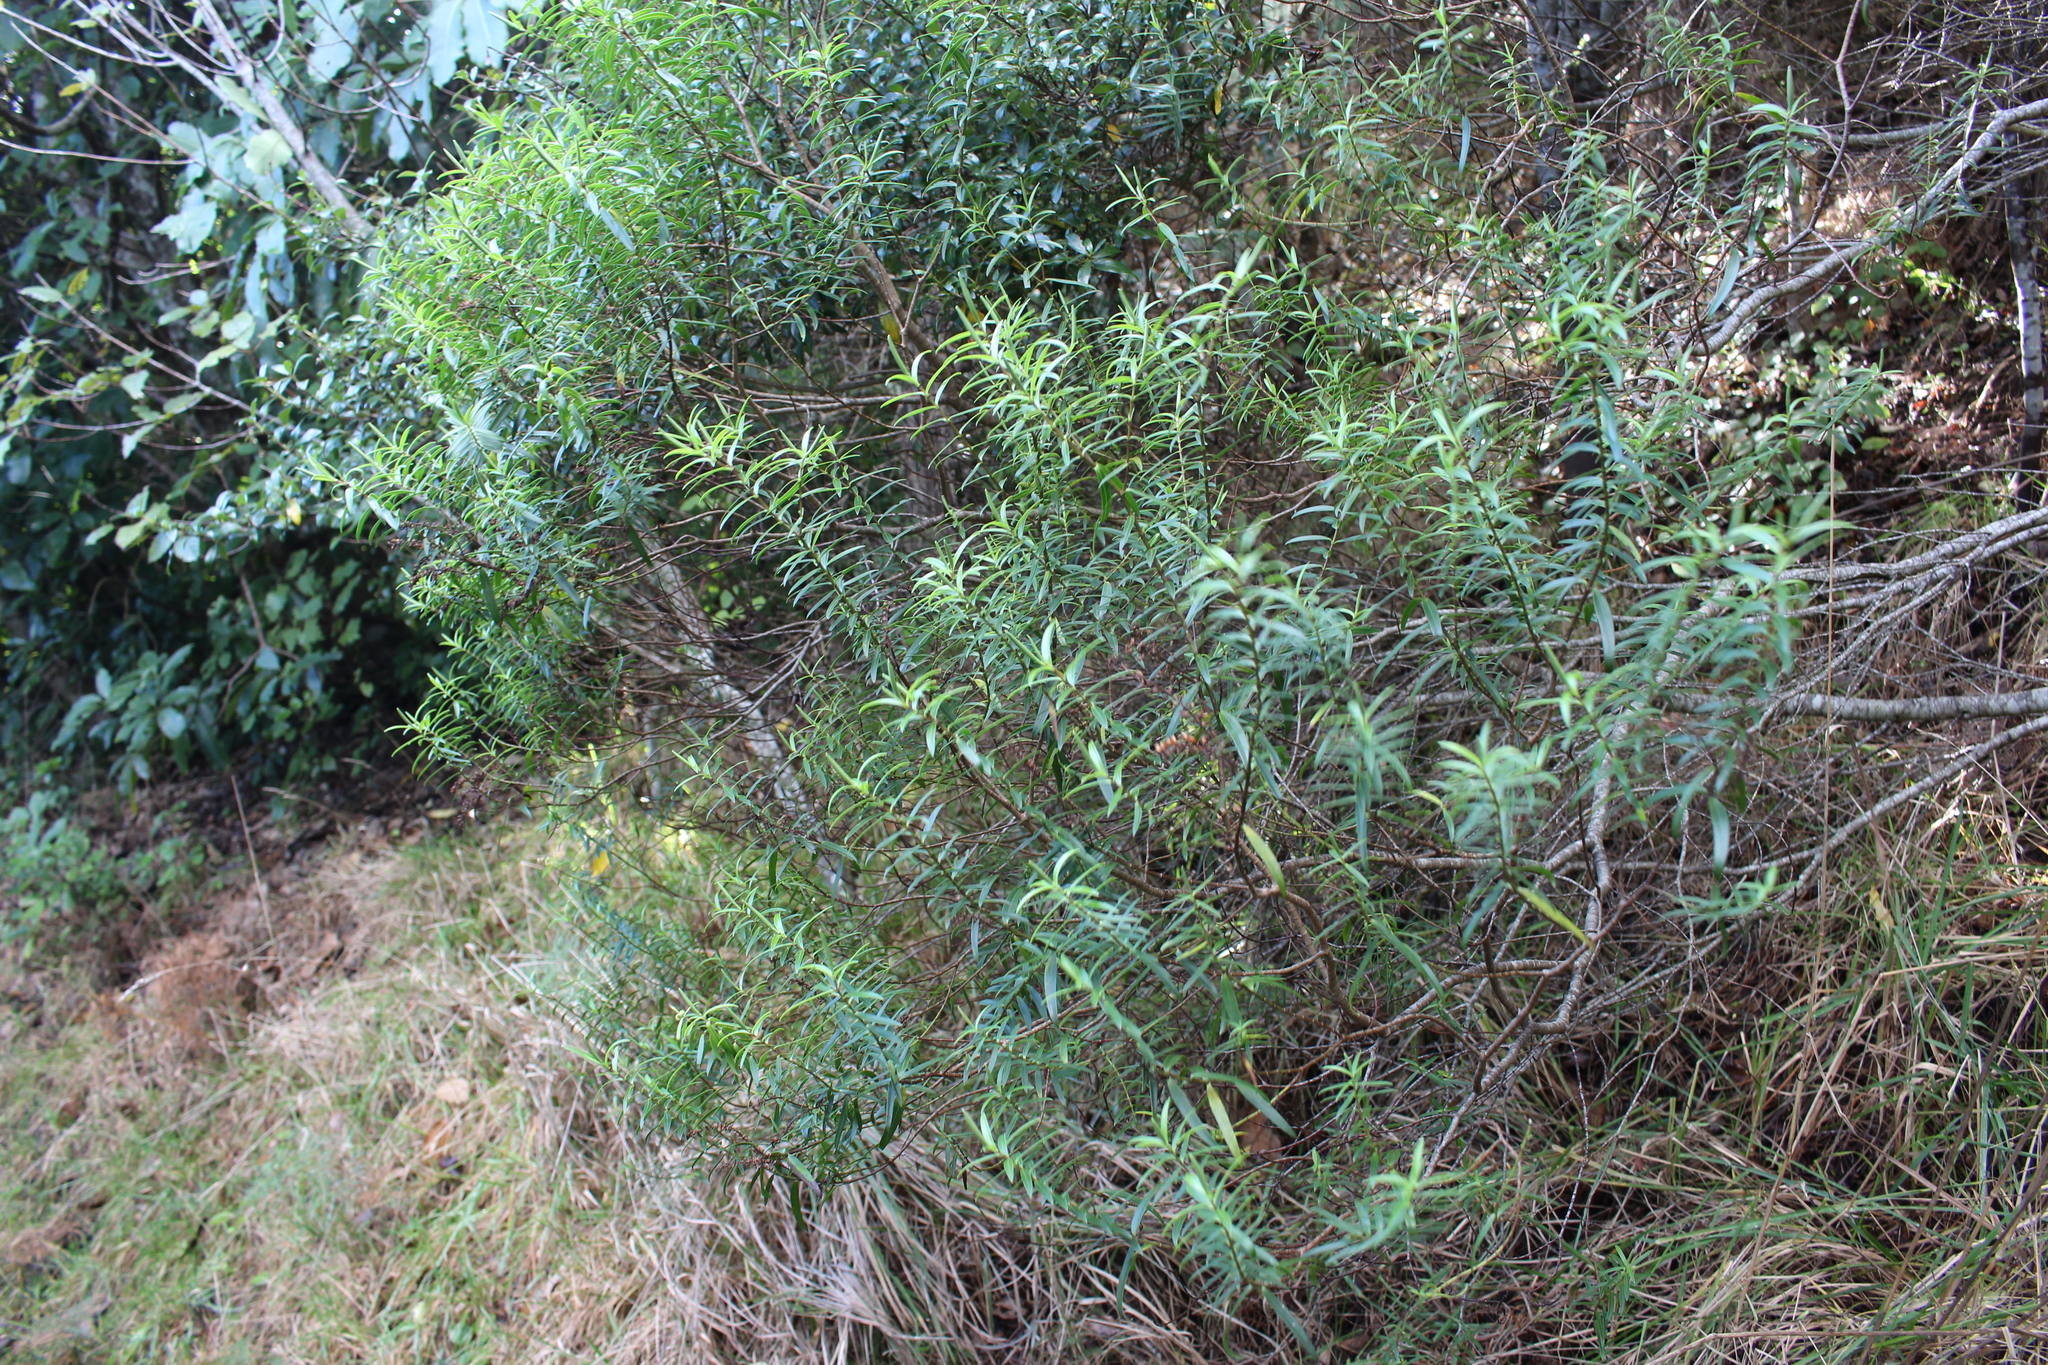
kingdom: Plantae
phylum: Tracheophyta
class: Magnoliopsida
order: Lamiales
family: Plantaginaceae
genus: Veronica
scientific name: Veronica strictissima
